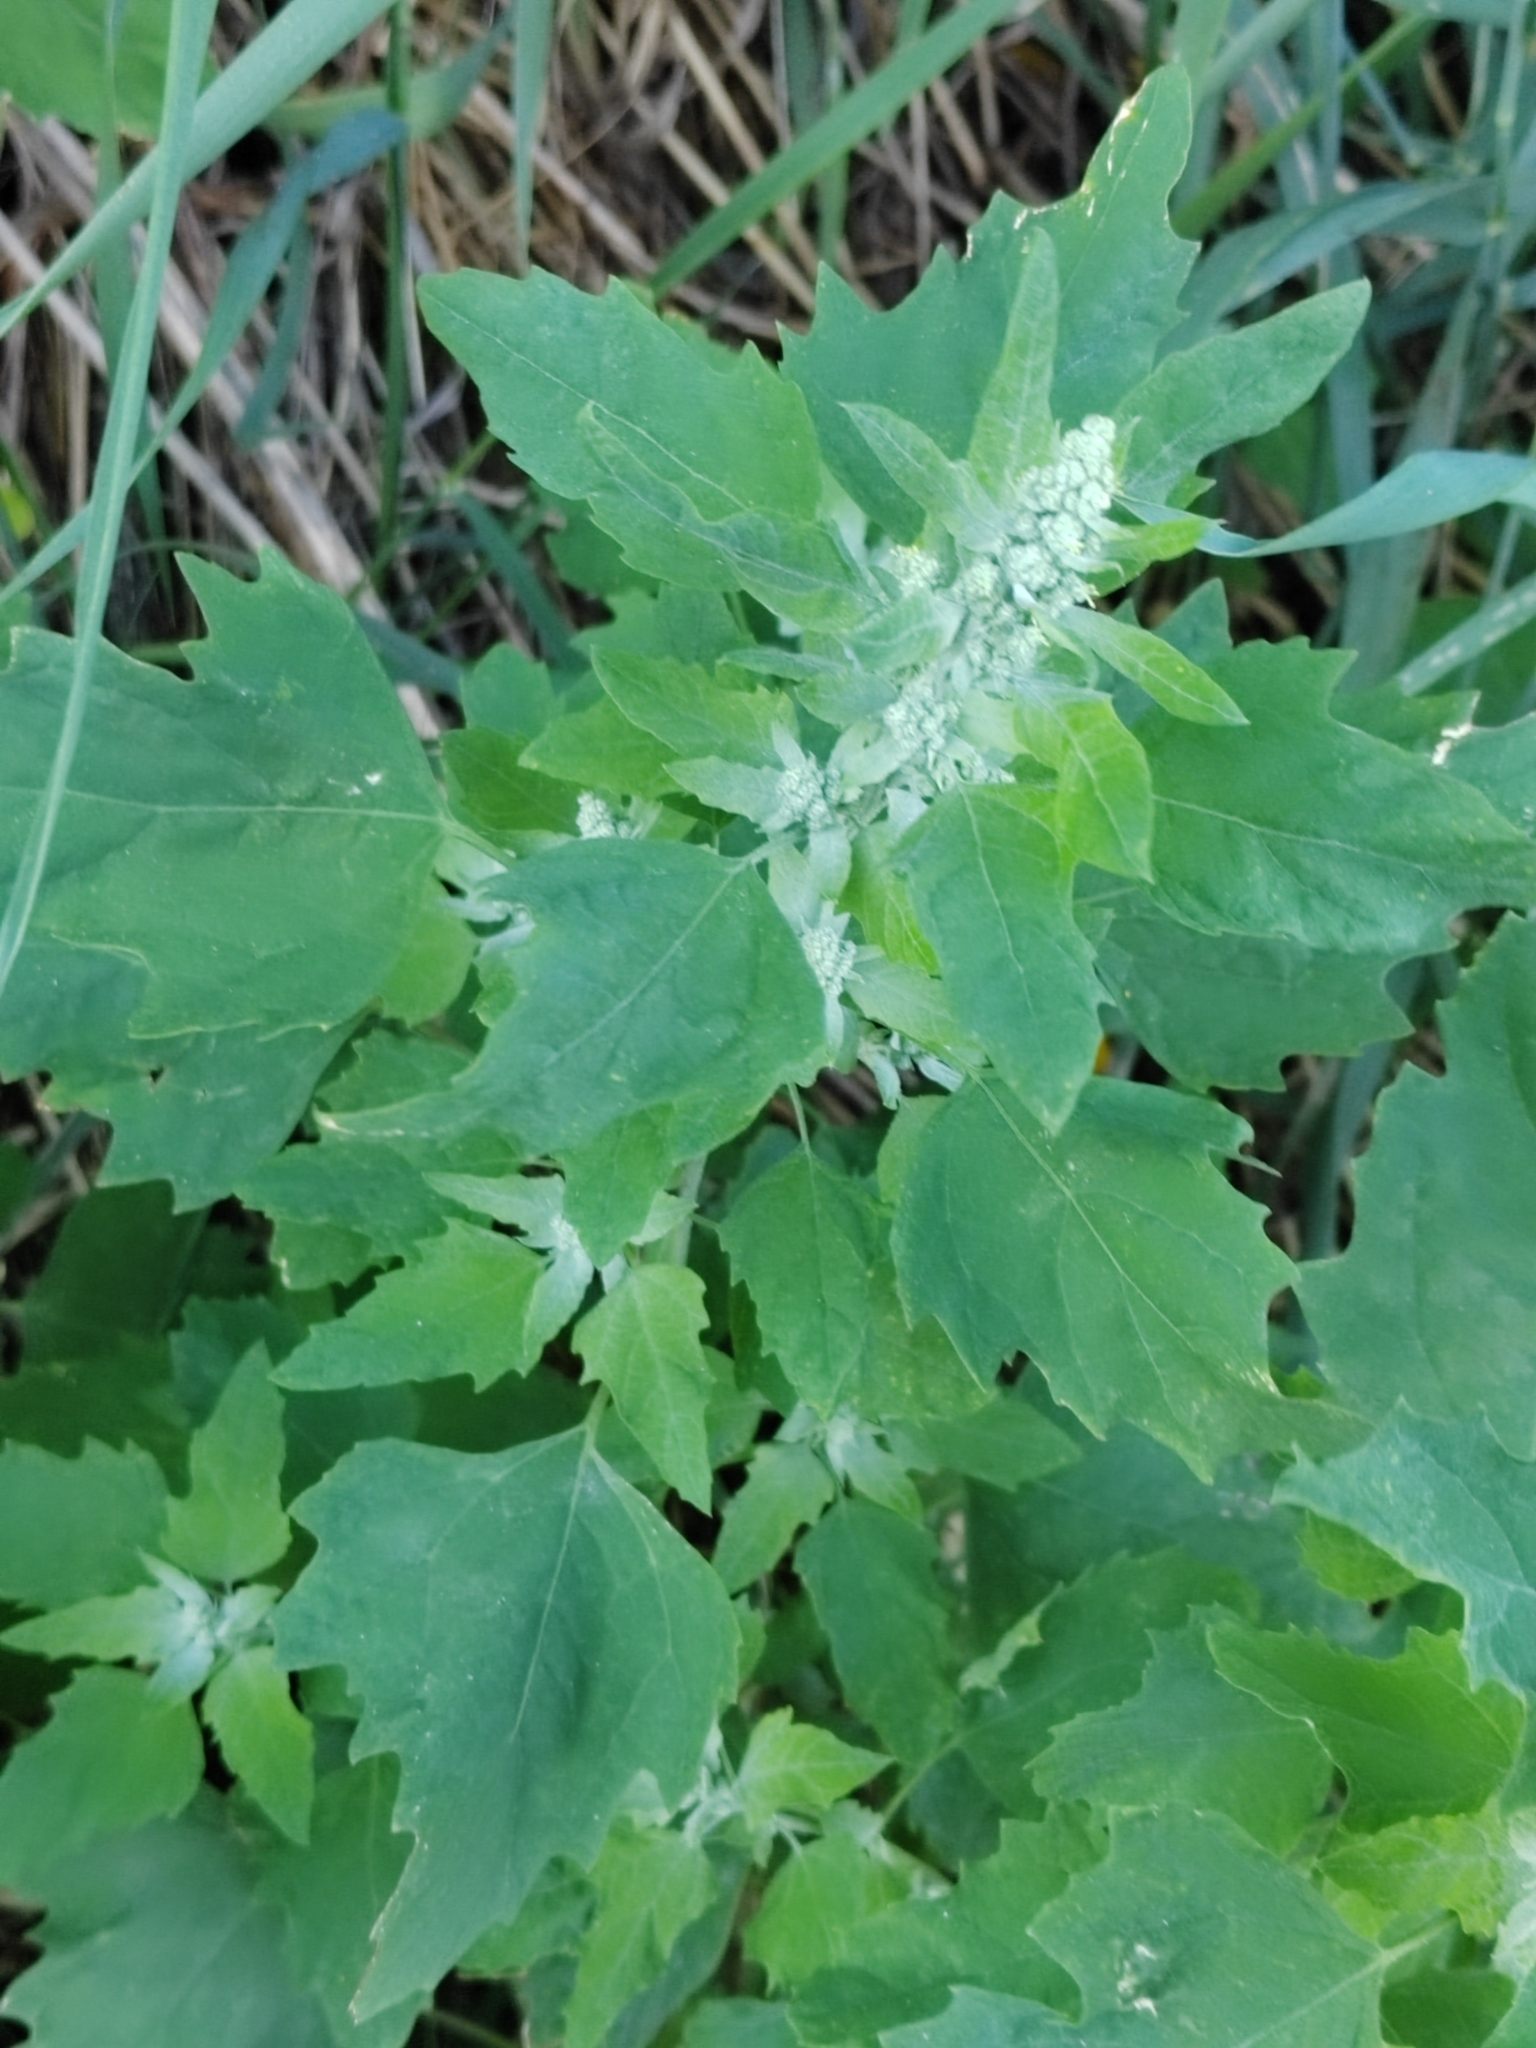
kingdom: Plantae
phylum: Tracheophyta
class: Magnoliopsida
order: Caryophyllales
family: Amaranthaceae
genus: Chenopodium
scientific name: Chenopodium album
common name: Fat-hen
